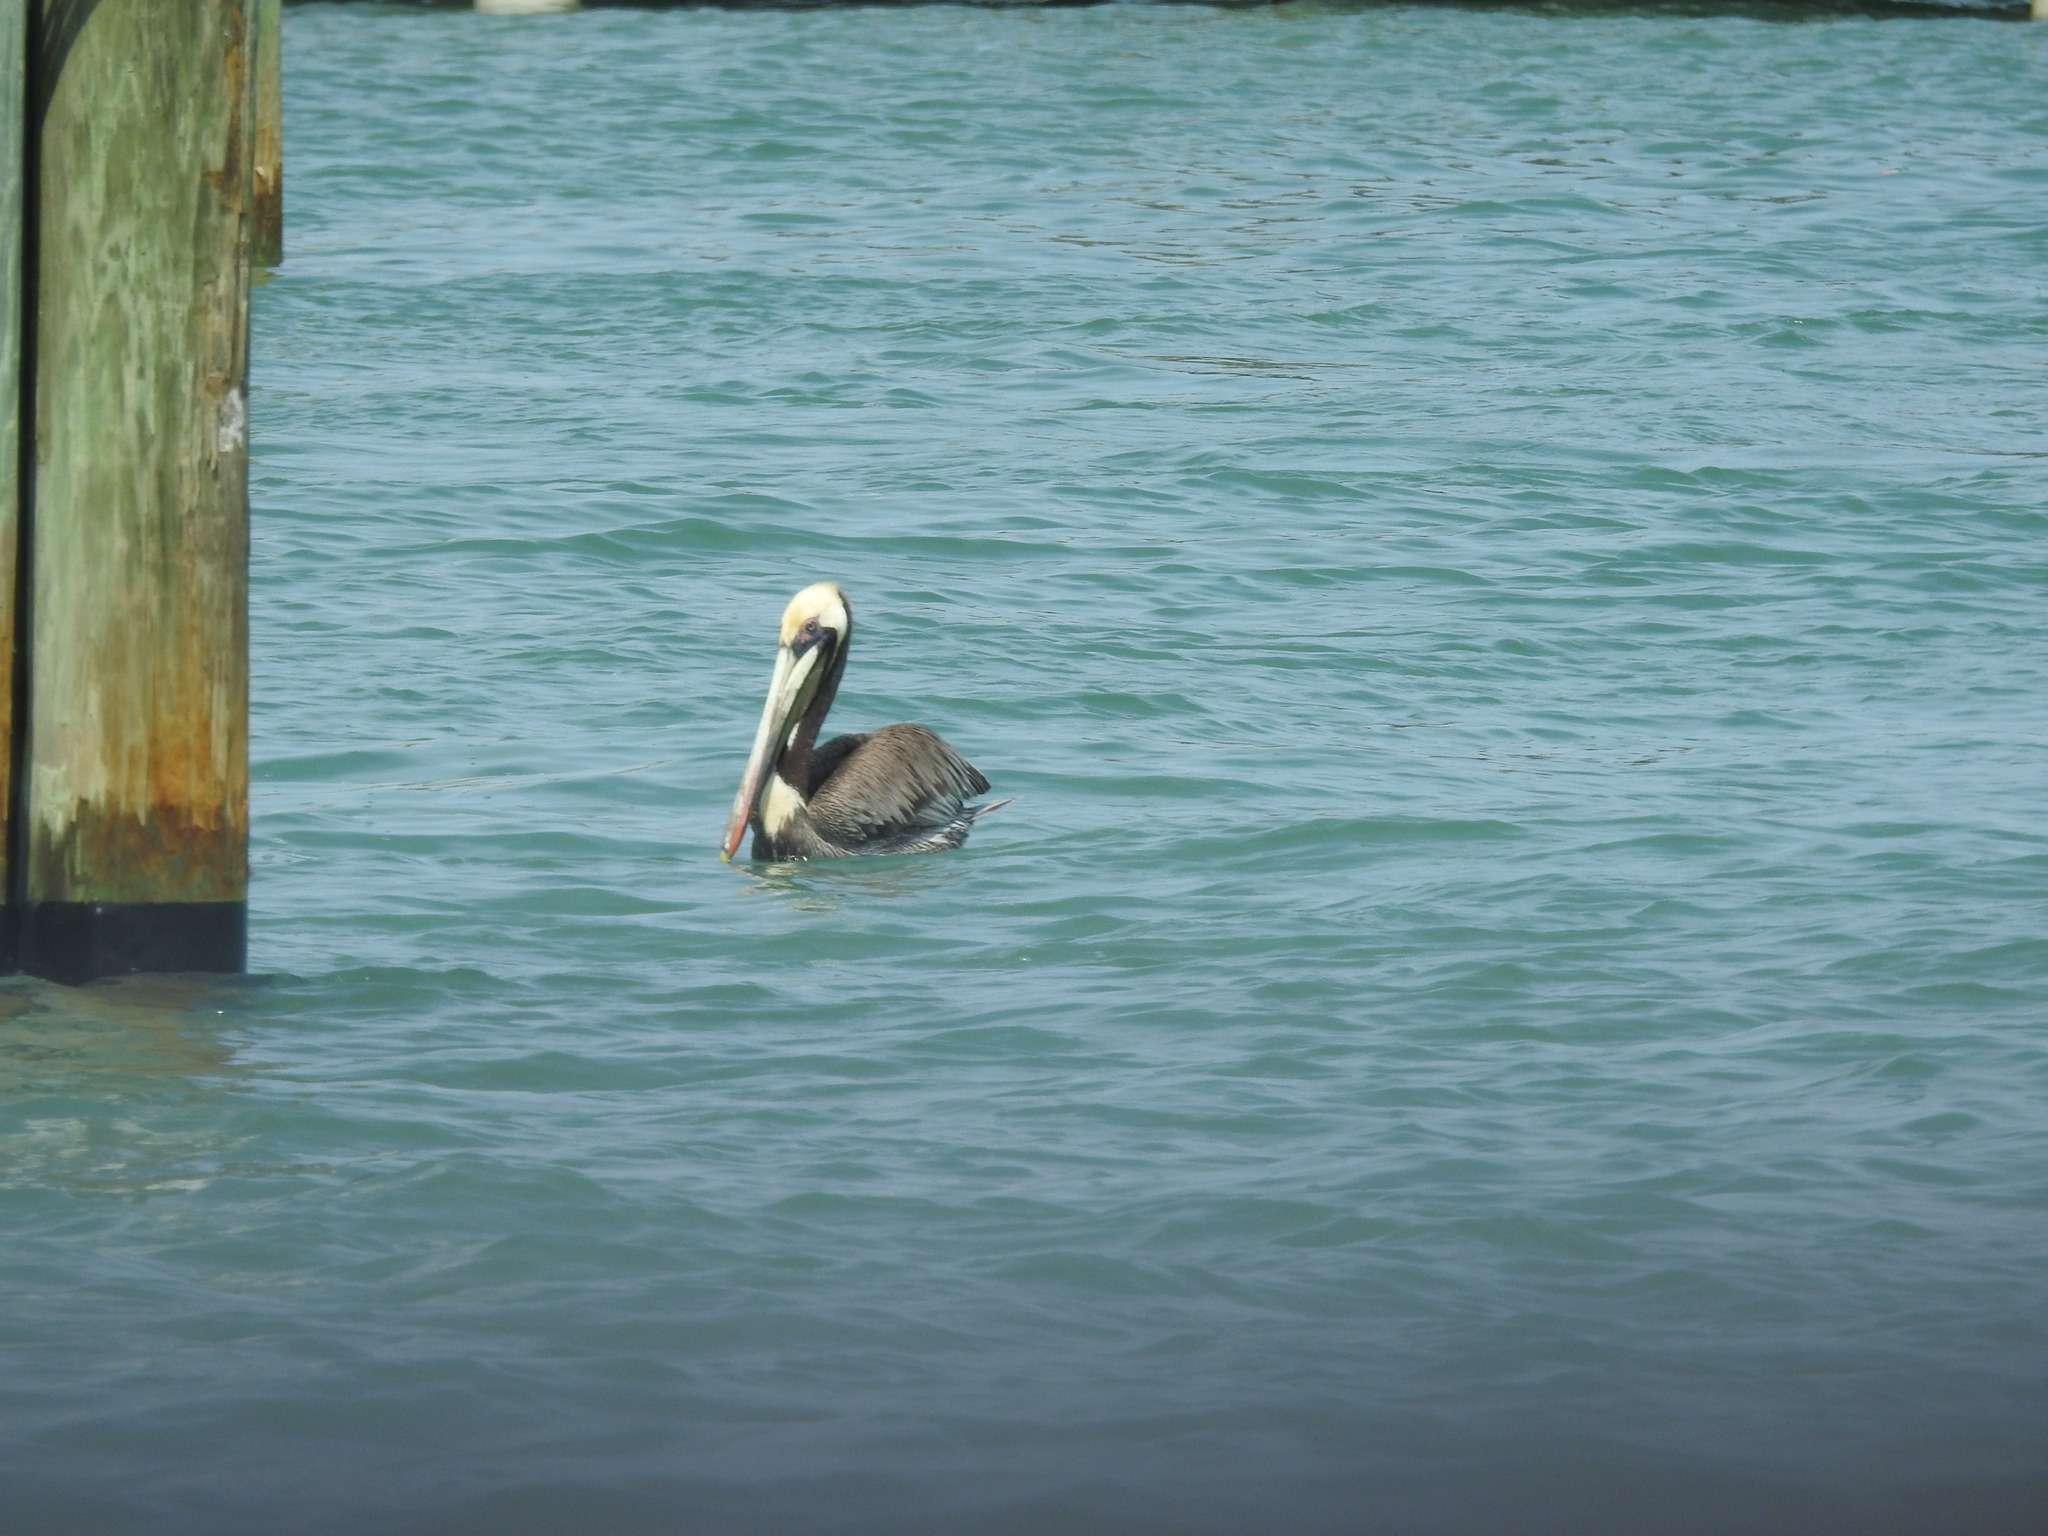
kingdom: Animalia
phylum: Chordata
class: Aves
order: Pelecaniformes
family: Pelecanidae
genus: Pelecanus
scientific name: Pelecanus occidentalis
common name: Brown pelican
